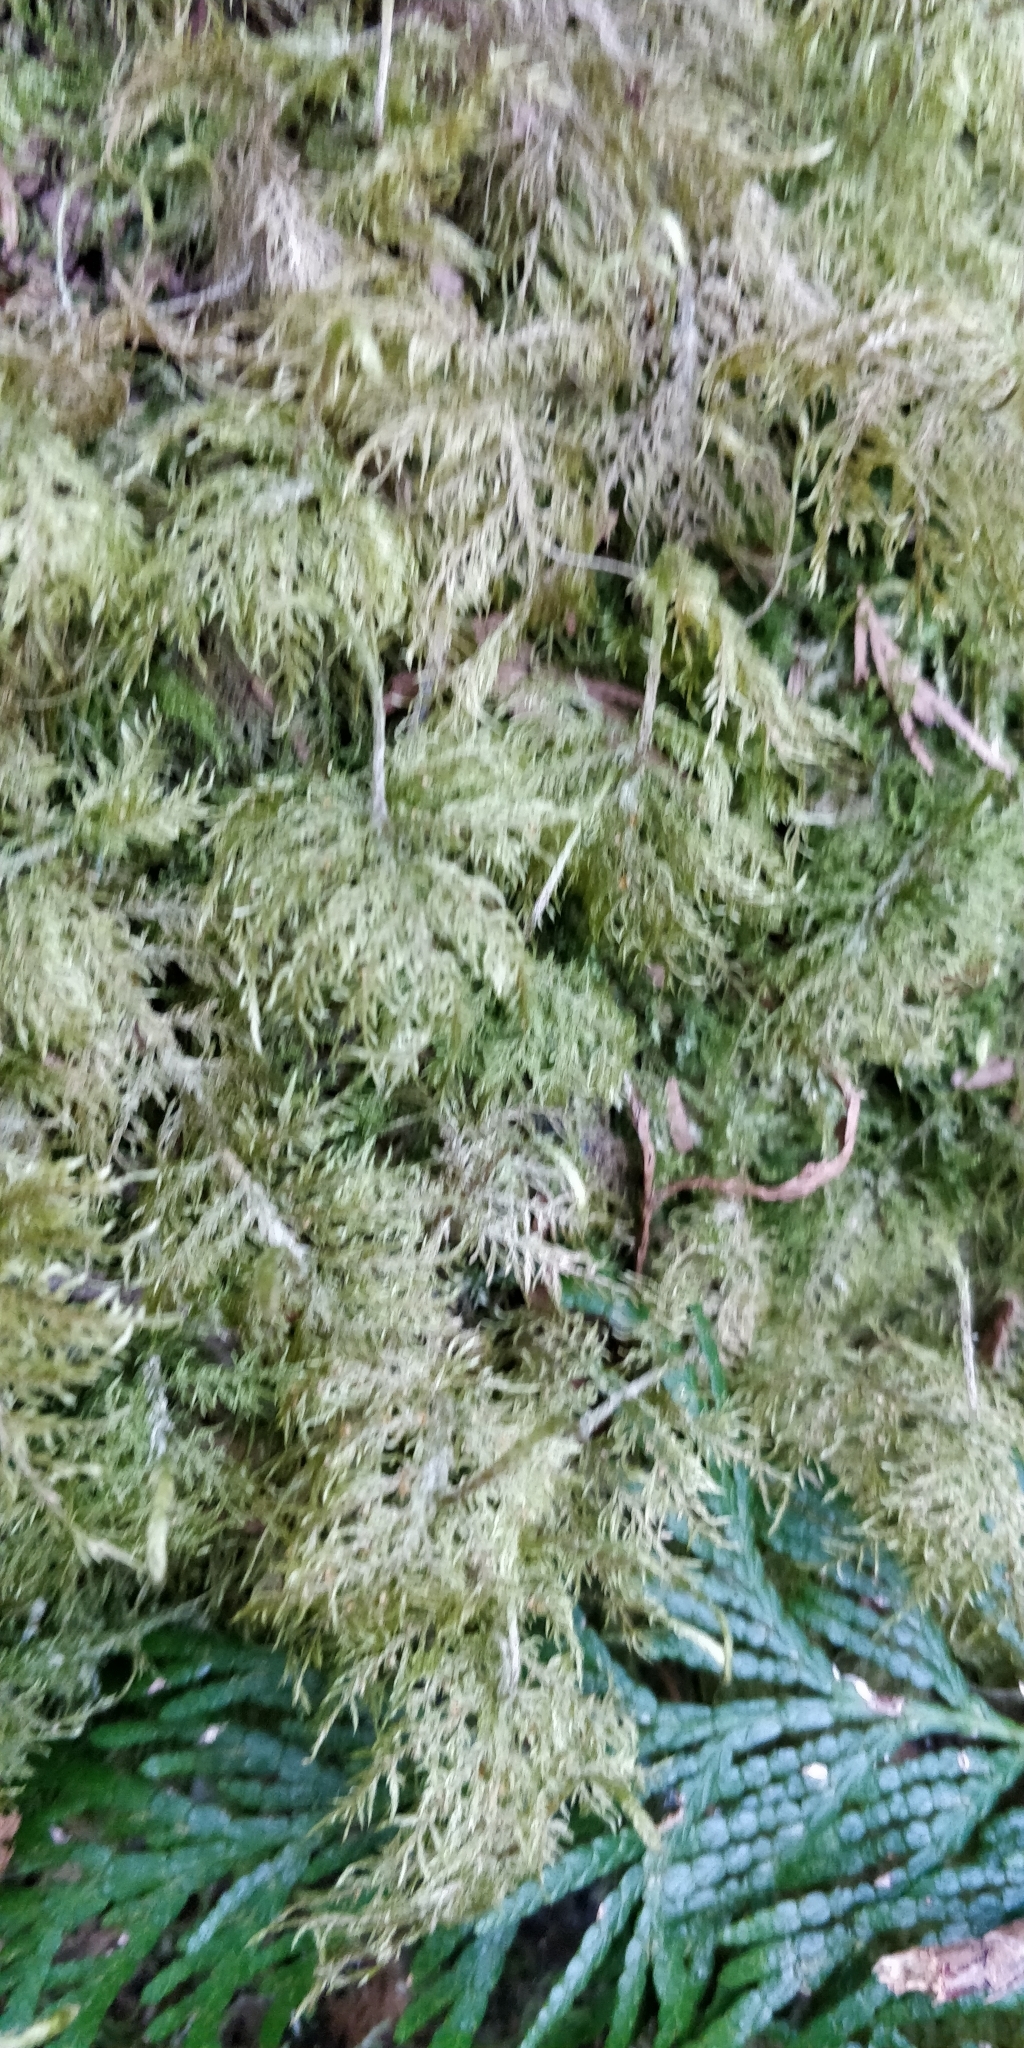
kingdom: Plantae
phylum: Bryophyta
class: Bryopsida
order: Hypnales
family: Hylocomiaceae
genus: Hylocomium
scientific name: Hylocomium splendens
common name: Stairstep moss
